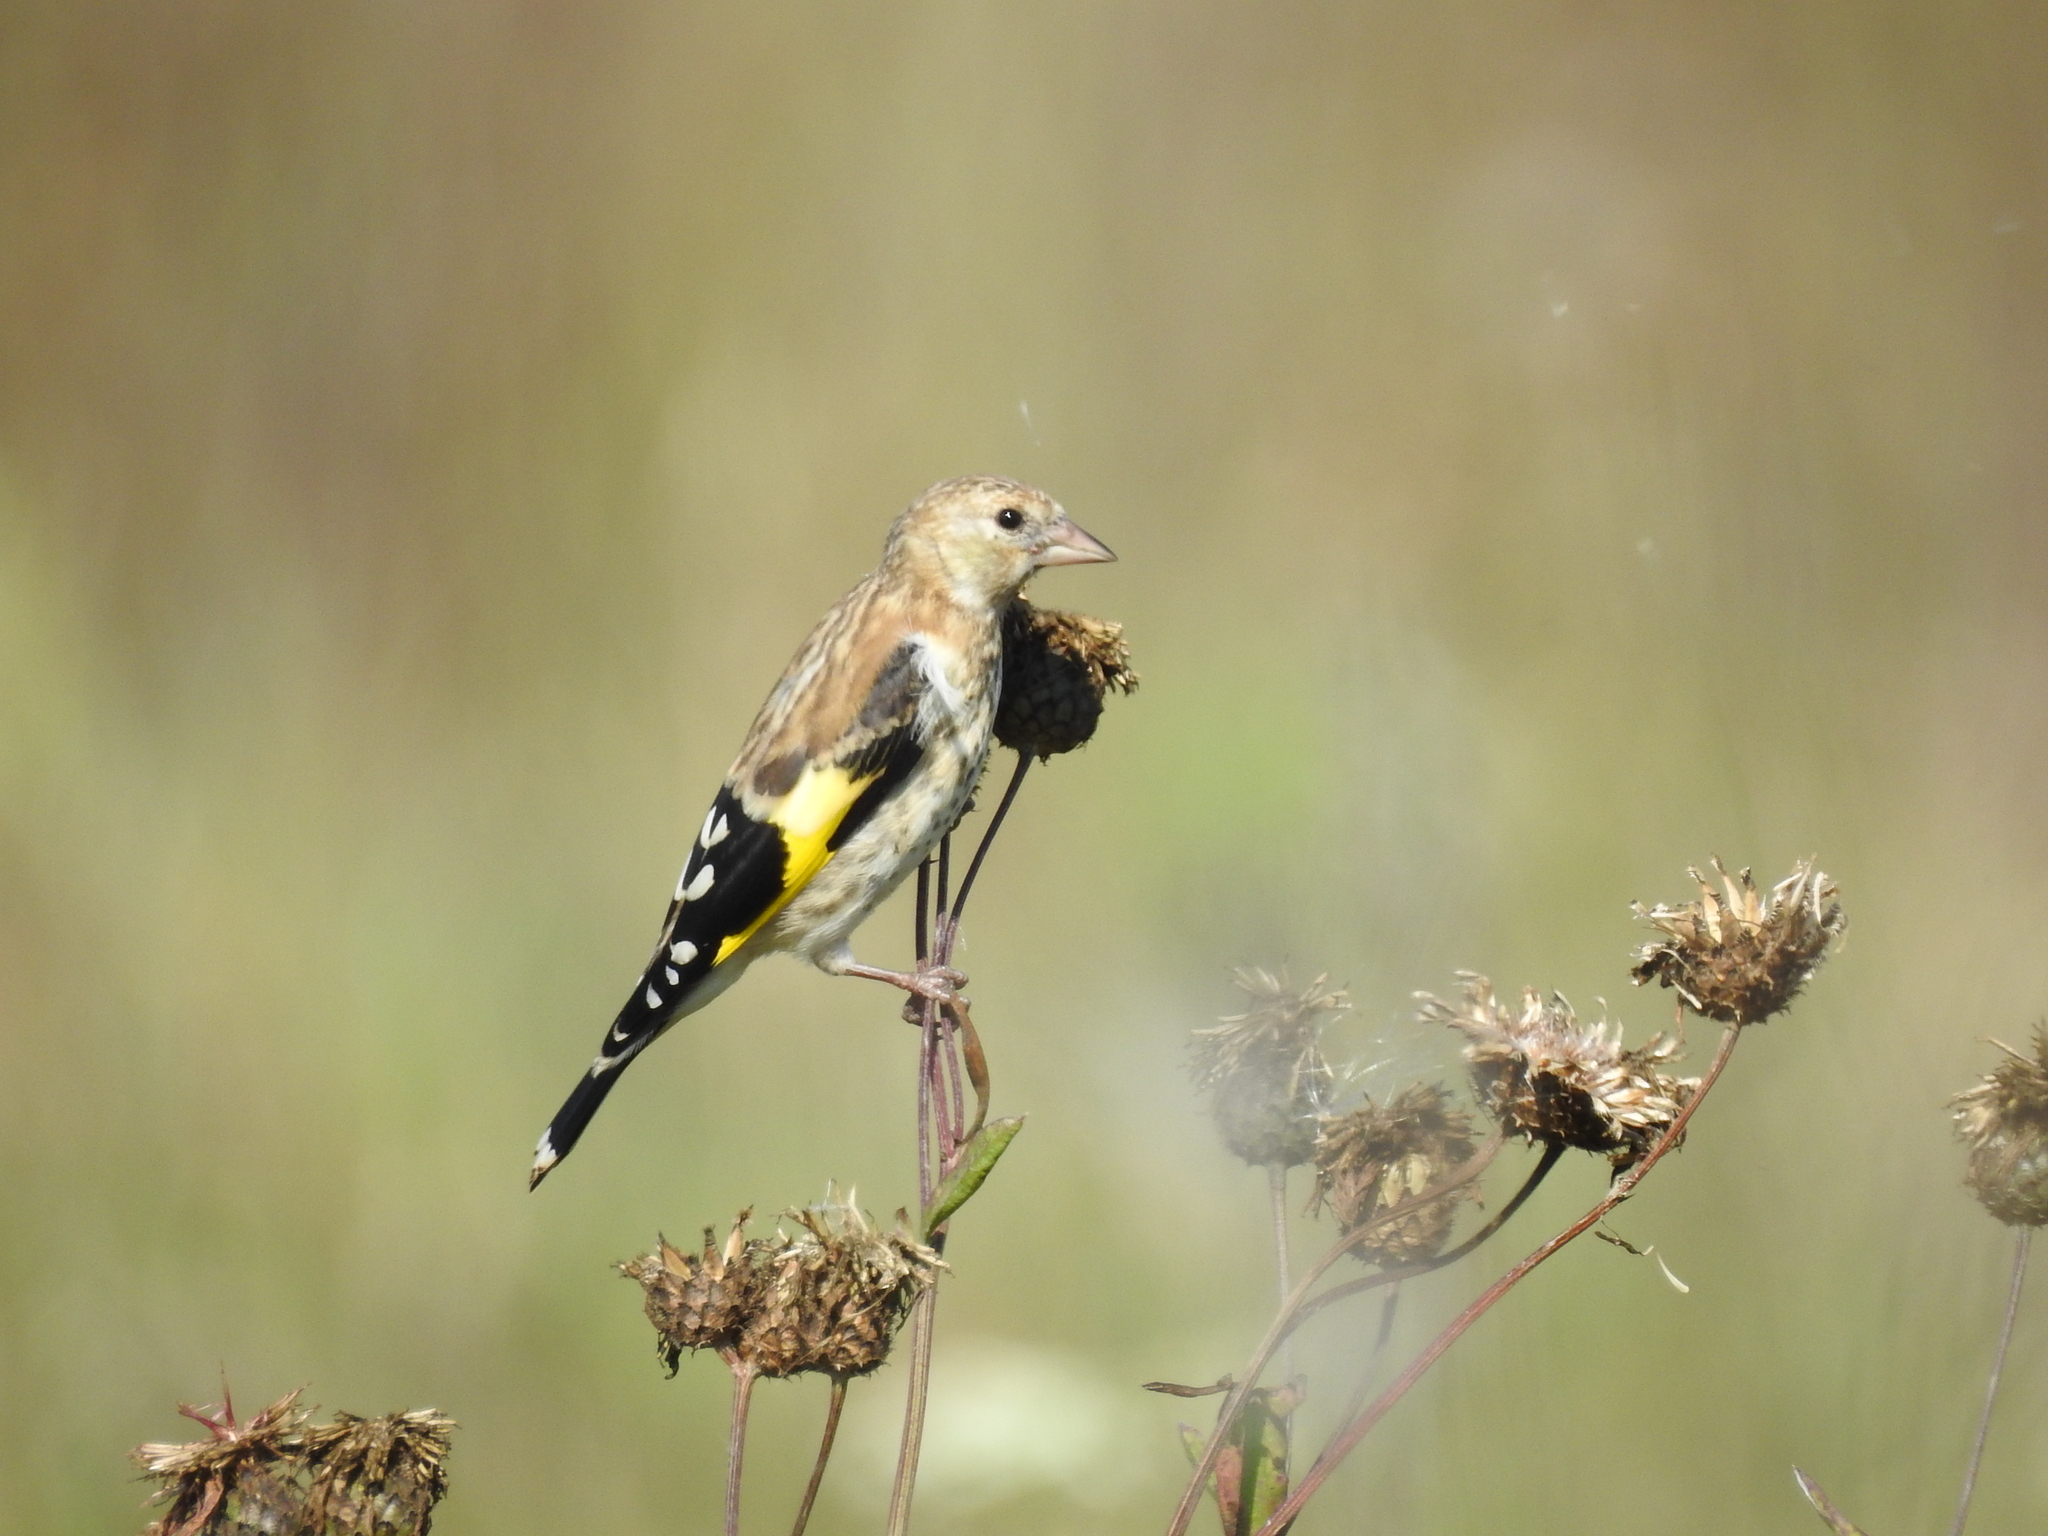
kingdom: Animalia
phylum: Chordata
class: Aves
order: Passeriformes
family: Fringillidae
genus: Carduelis
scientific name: Carduelis carduelis
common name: European goldfinch
